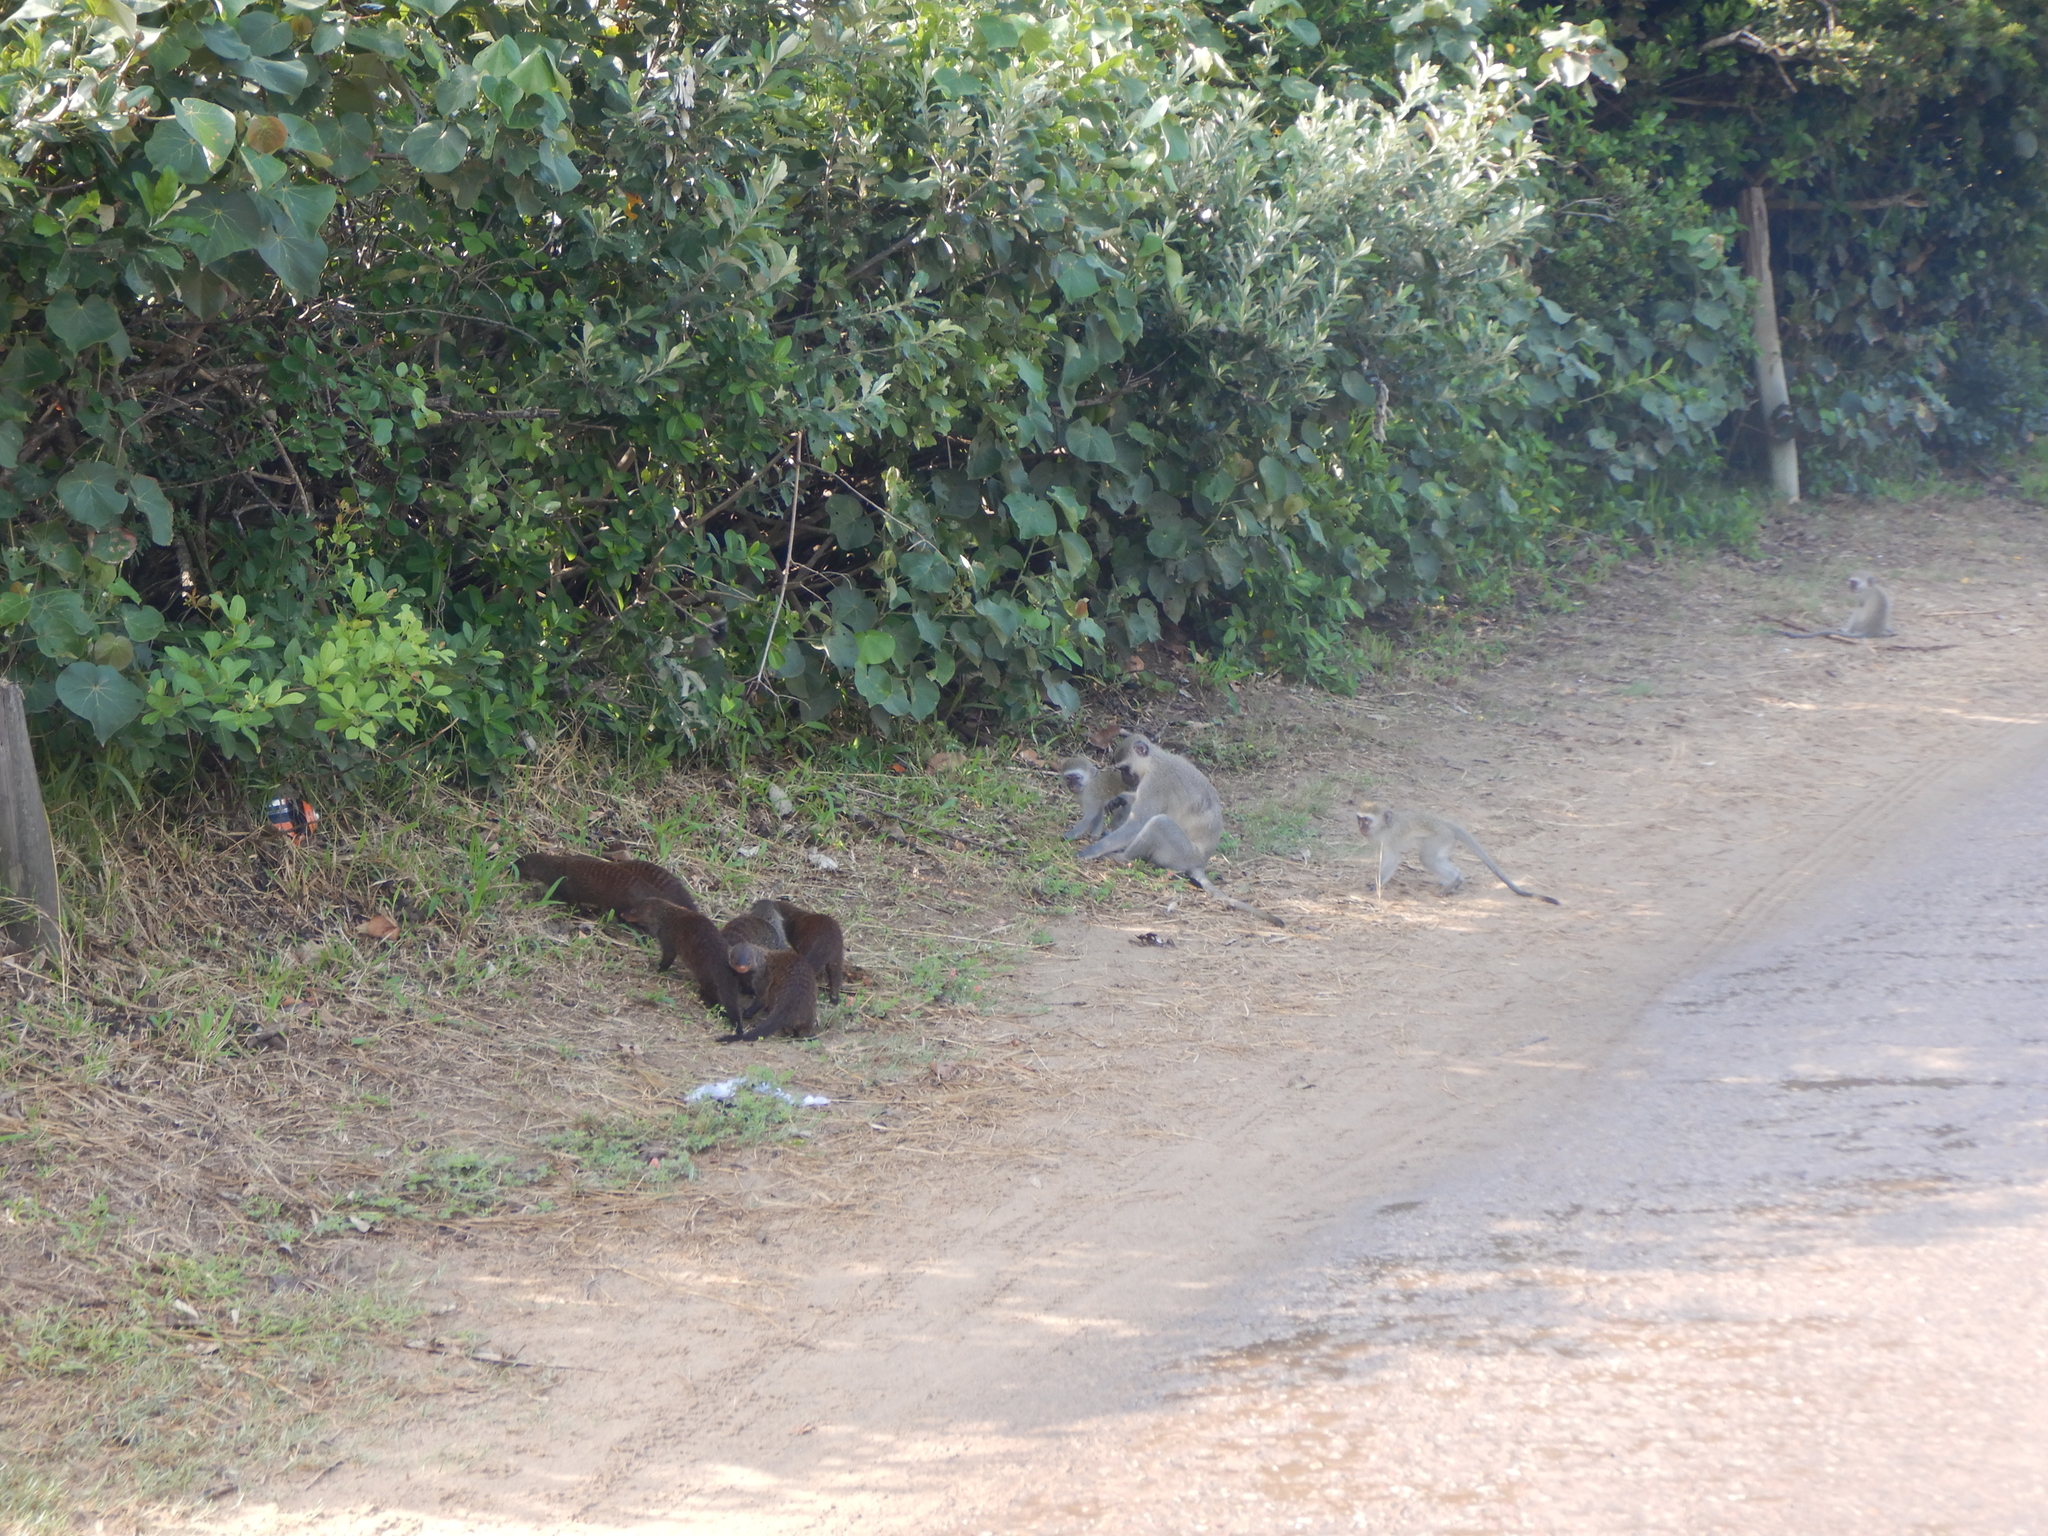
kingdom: Animalia
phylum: Chordata
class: Mammalia
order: Carnivora
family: Herpestidae
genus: Mungos
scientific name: Mungos mungo
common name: Banded mongoose
